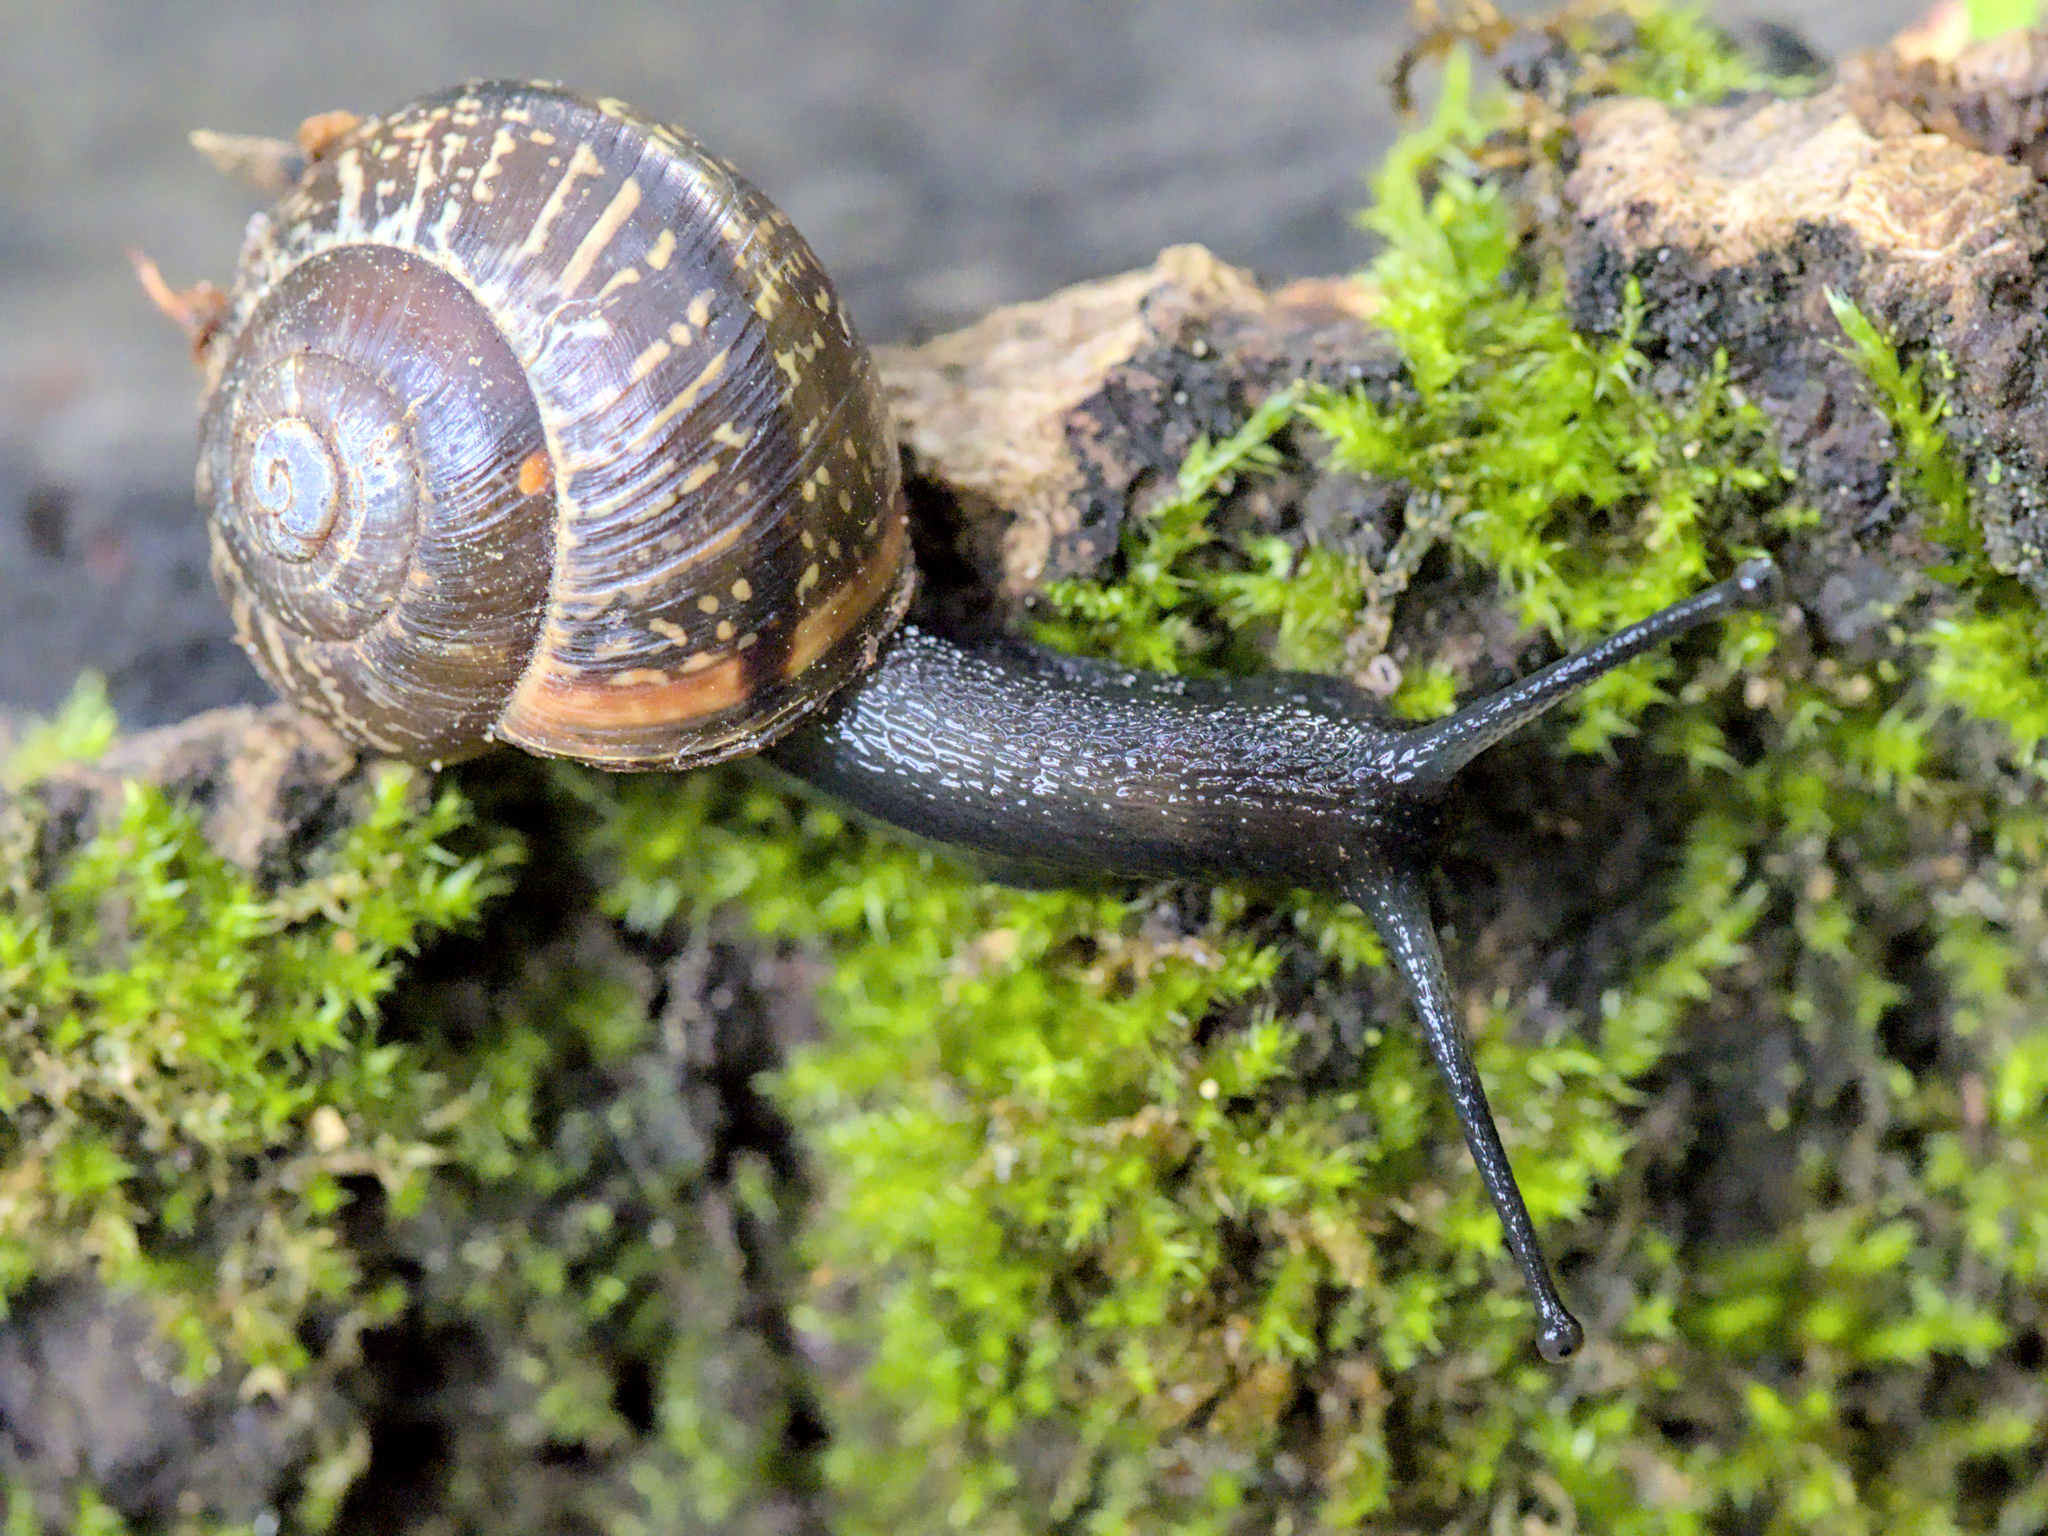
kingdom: Animalia
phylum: Mollusca
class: Gastropoda
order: Stylommatophora
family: Helicidae
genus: Arianta
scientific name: Arianta arbustorum
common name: Copse snail
